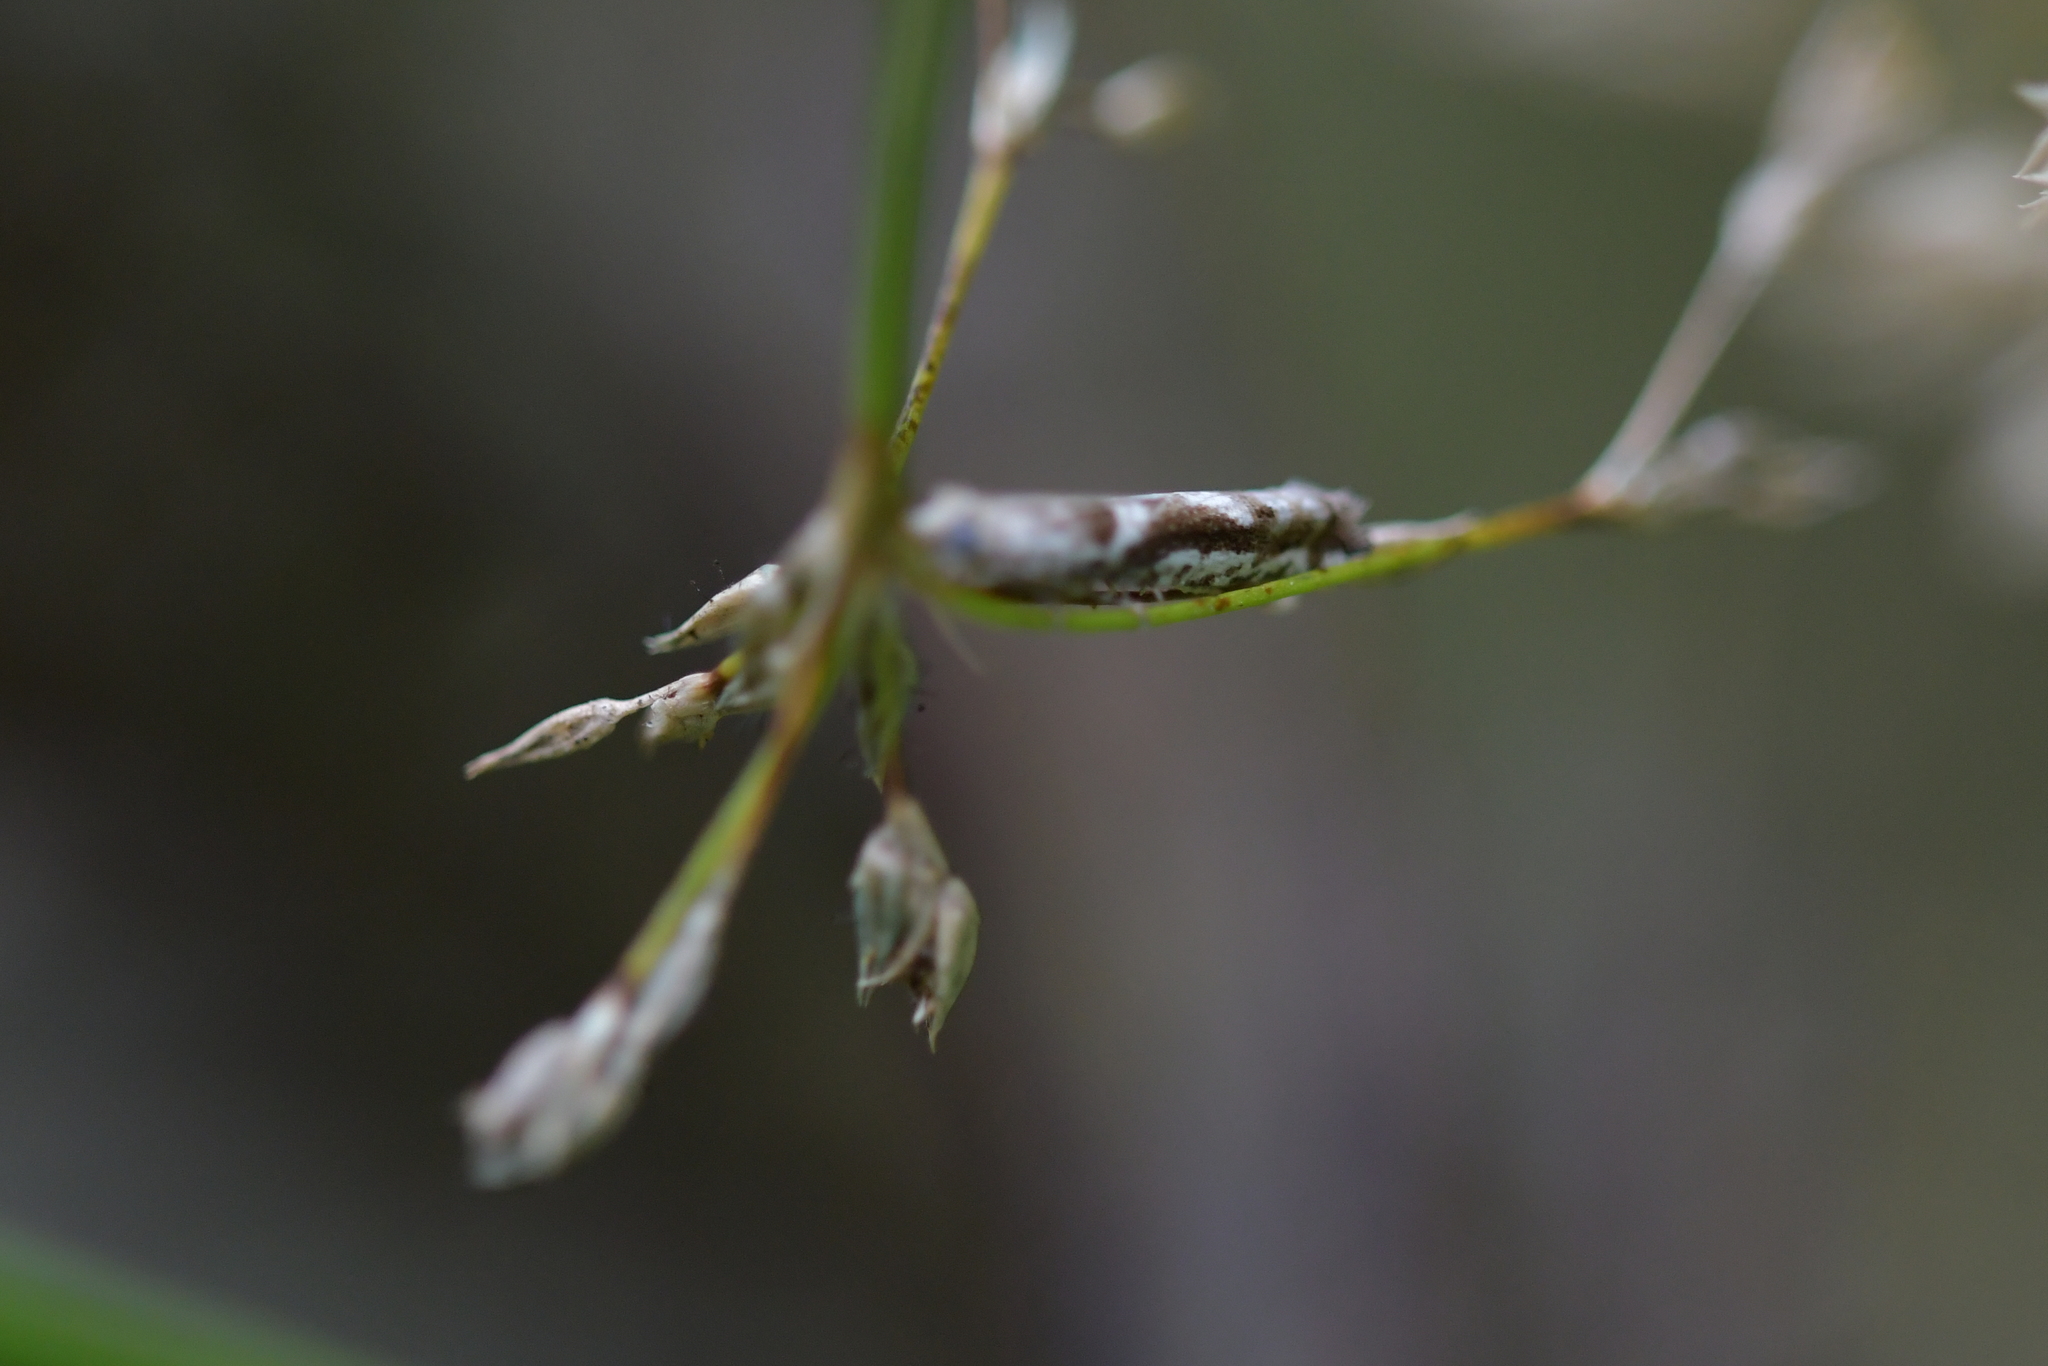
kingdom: Animalia
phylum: Arthropoda
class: Insecta
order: Lepidoptera
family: Tortricidae
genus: Holocola
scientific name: Holocola
